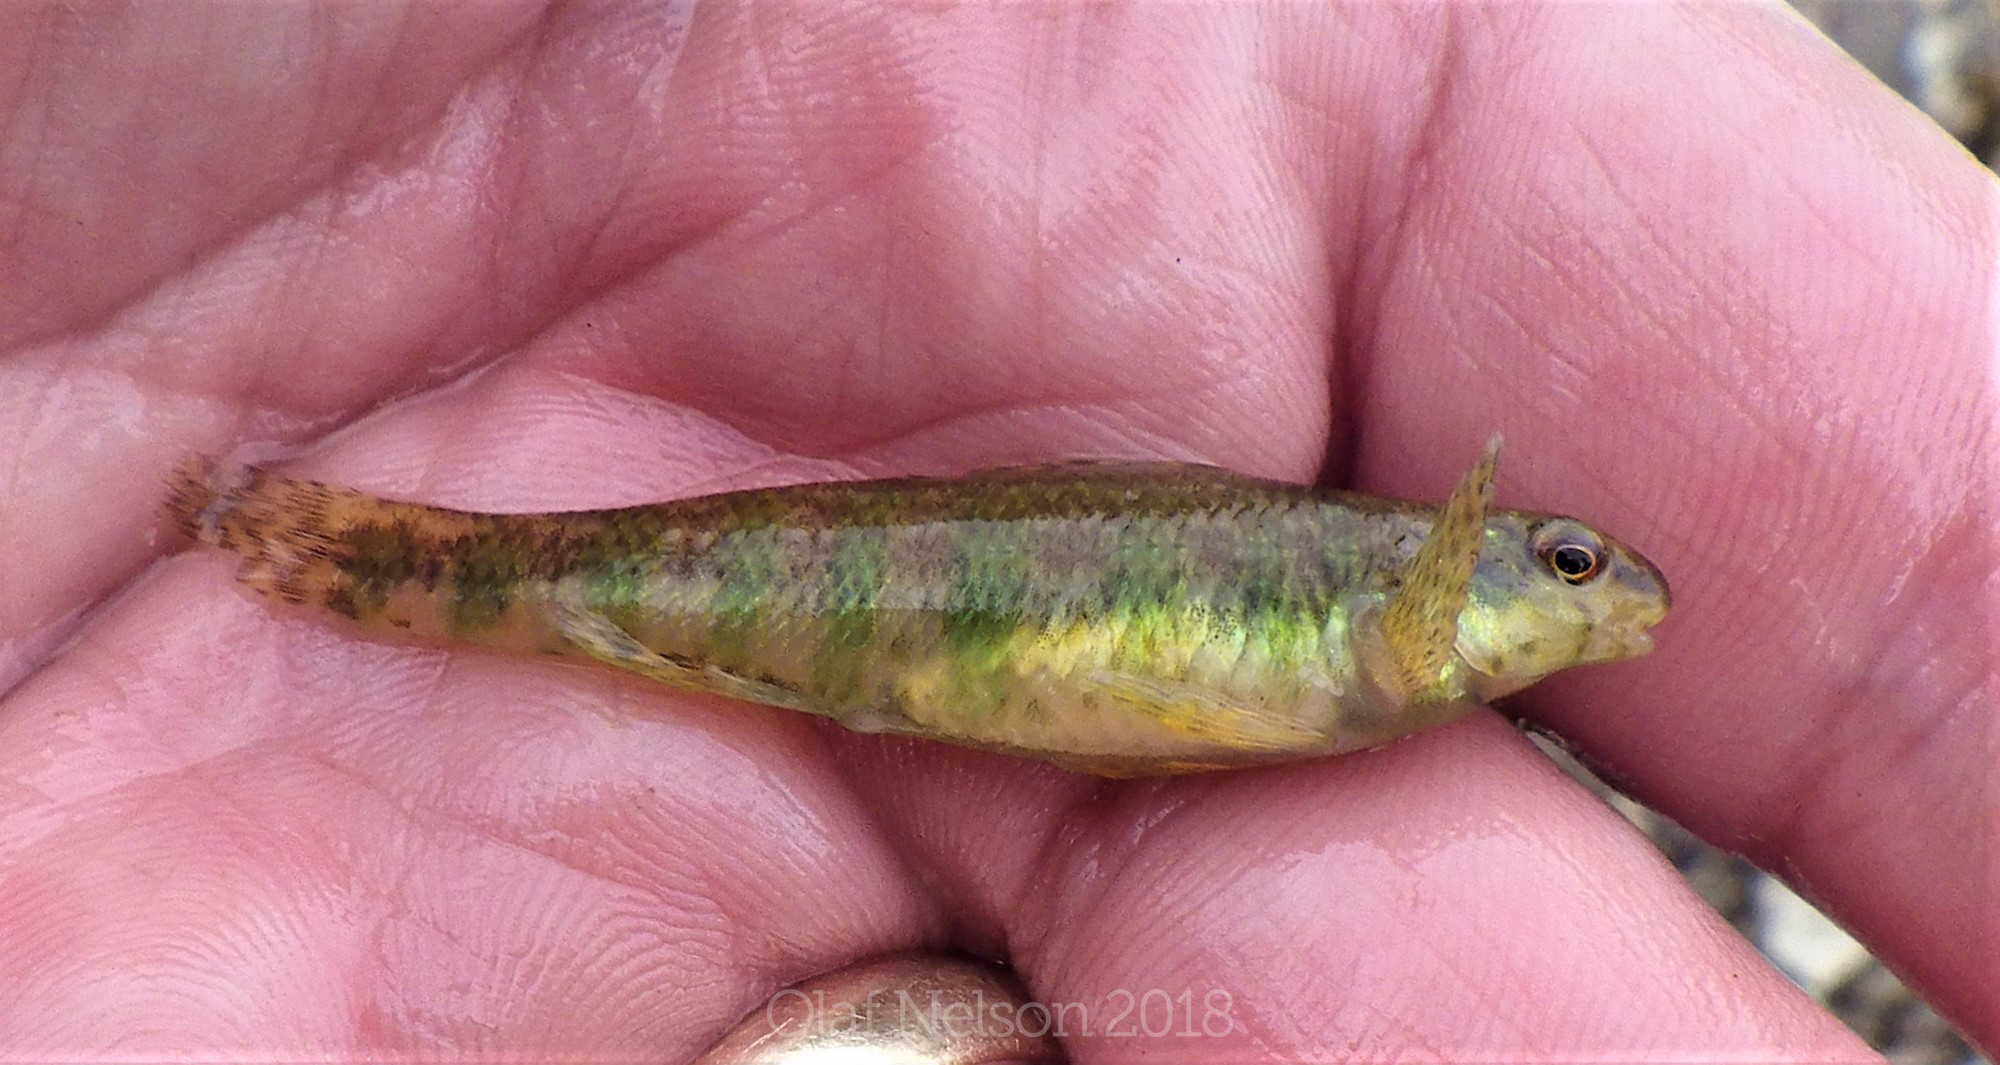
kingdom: Animalia
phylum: Chordata
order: Perciformes
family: Percidae
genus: Etheostoma
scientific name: Etheostoma zonale
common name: Banded darter
